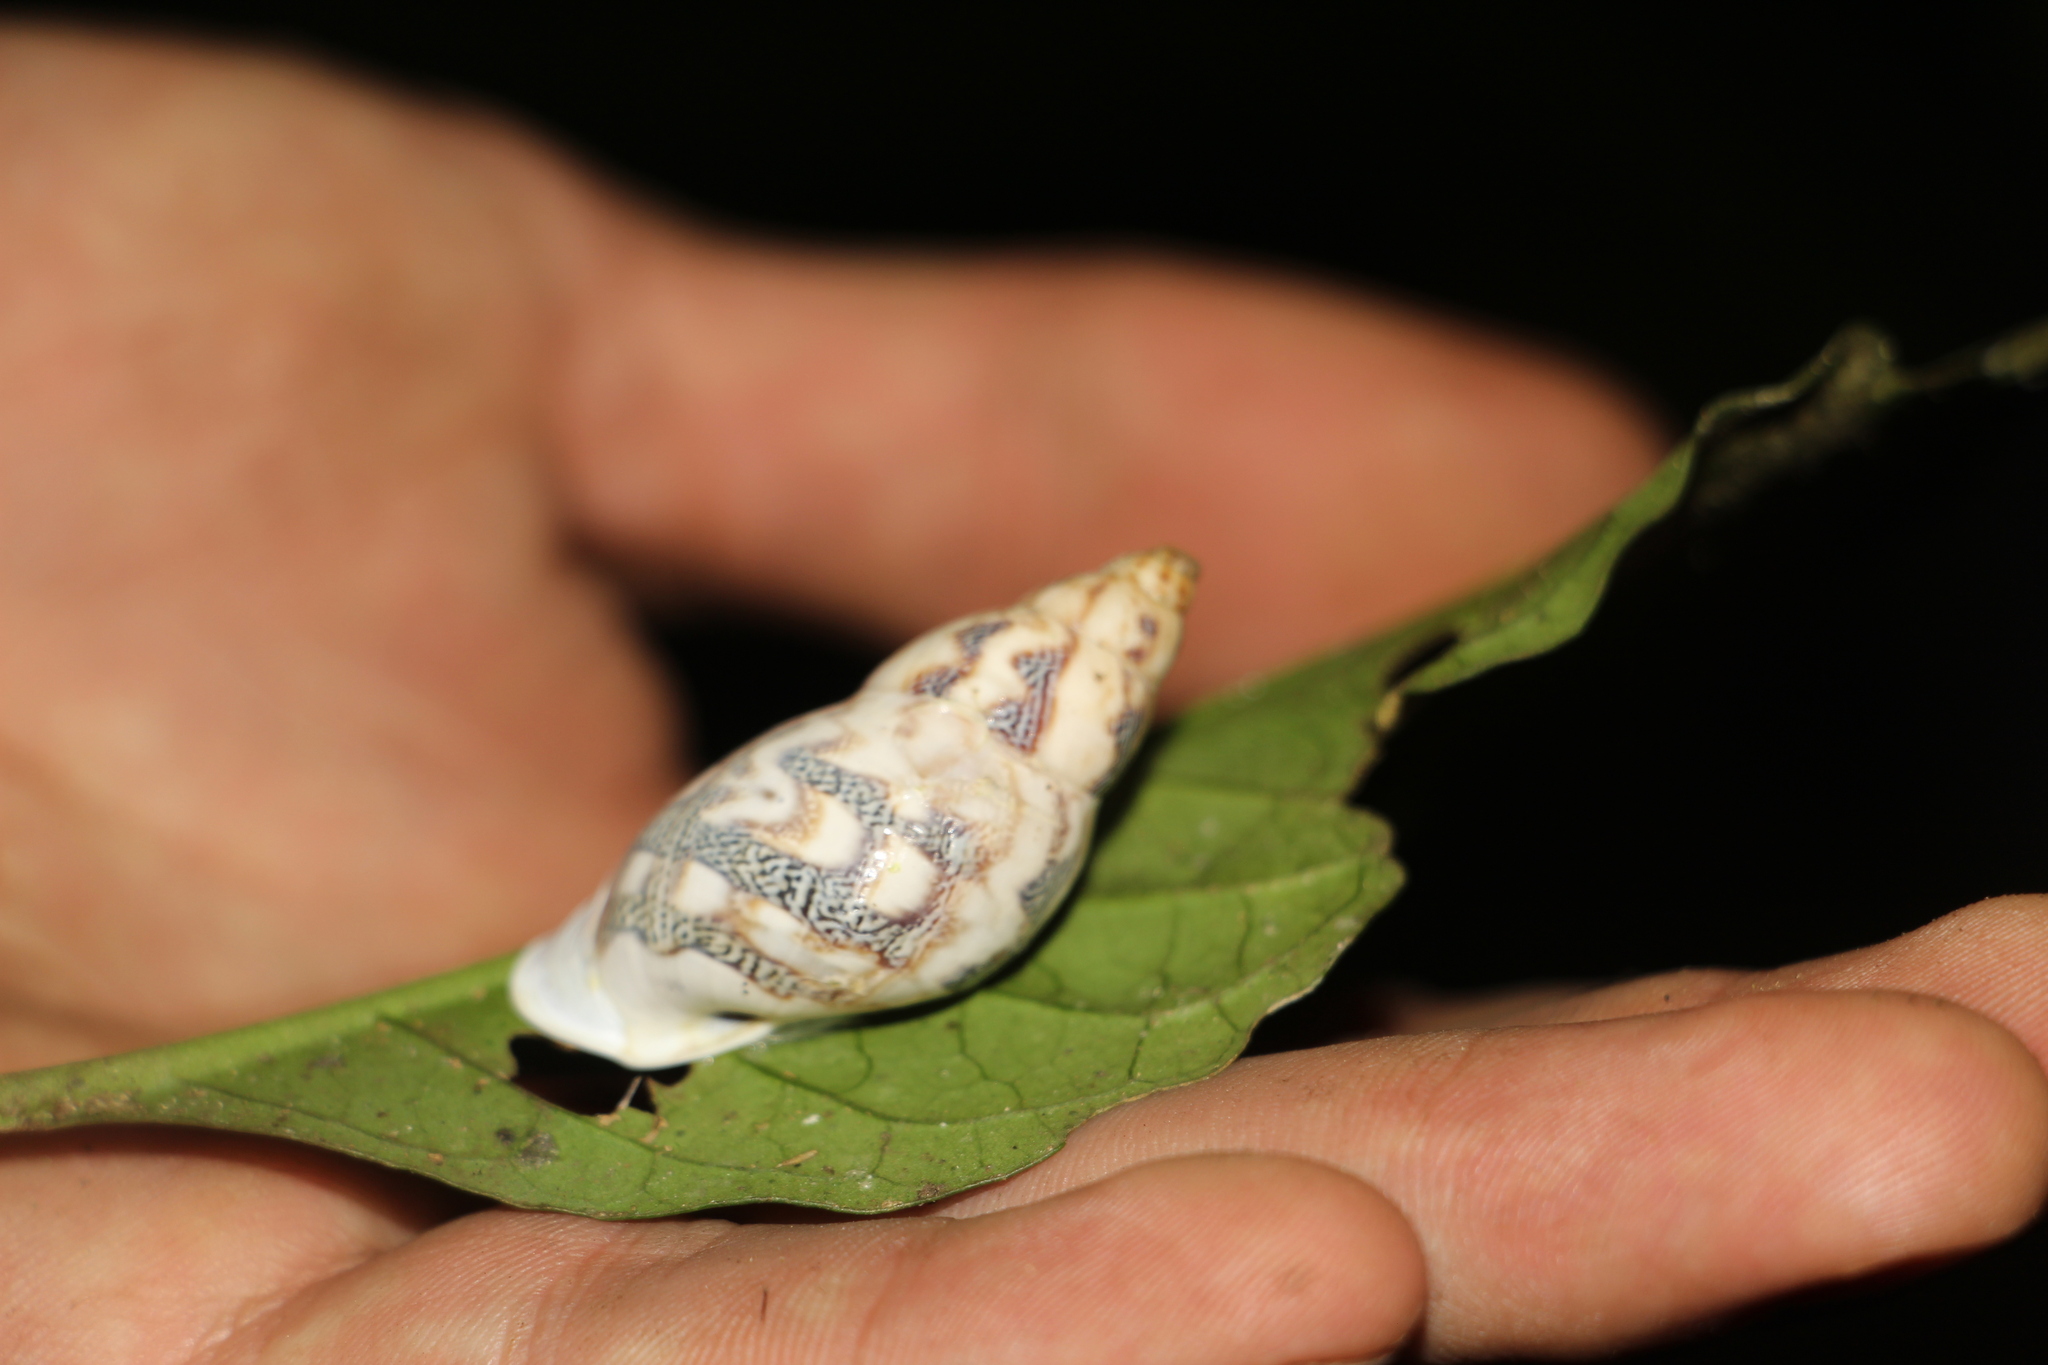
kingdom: Animalia
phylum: Mollusca
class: Gastropoda
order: Stylommatophora
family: Bulimulidae
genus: Drymaeus
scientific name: Drymaeus flexuosus
